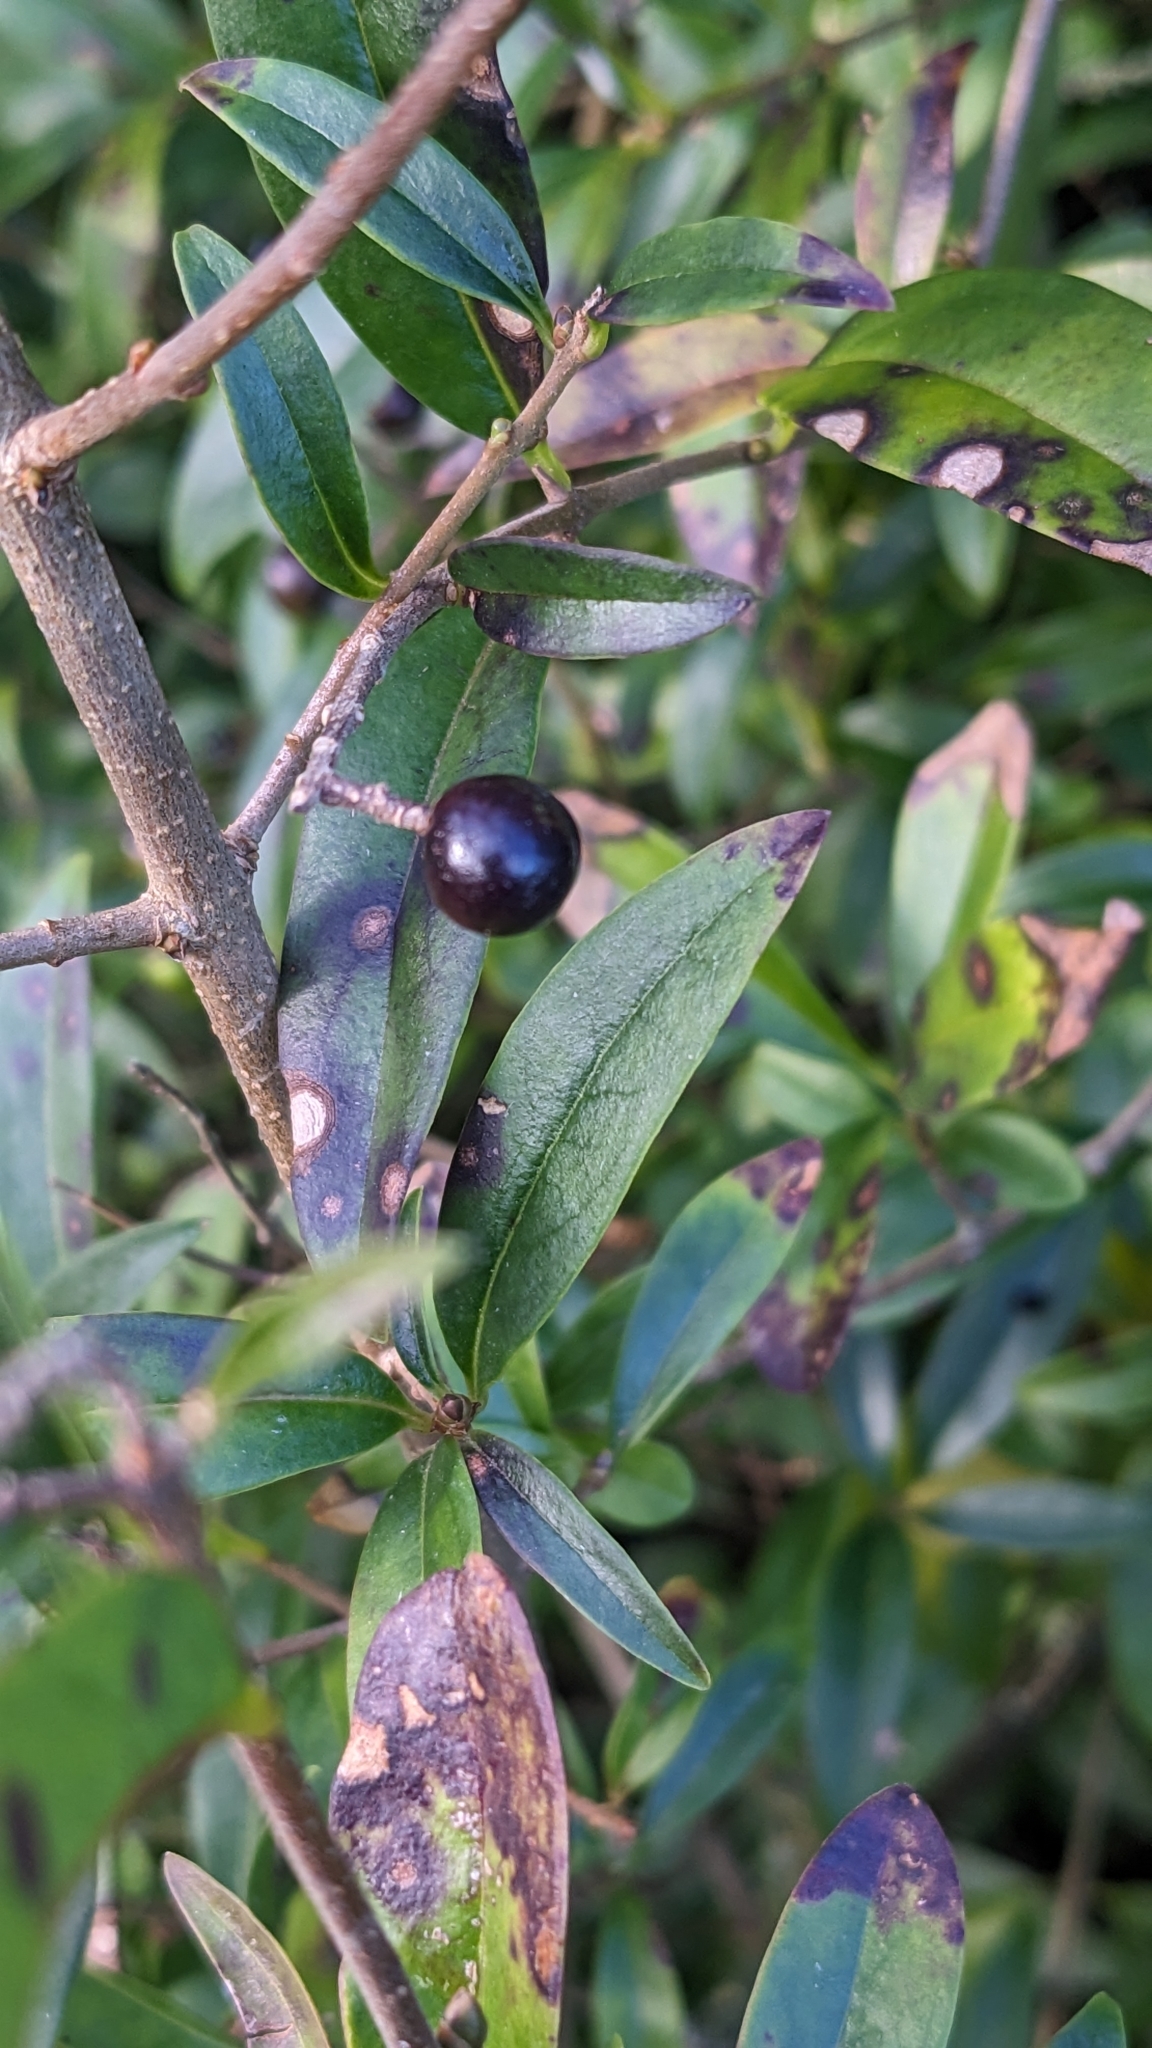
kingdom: Plantae
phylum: Tracheophyta
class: Magnoliopsida
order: Lamiales
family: Oleaceae
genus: Ligustrum
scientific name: Ligustrum vulgare
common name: Wild privet
